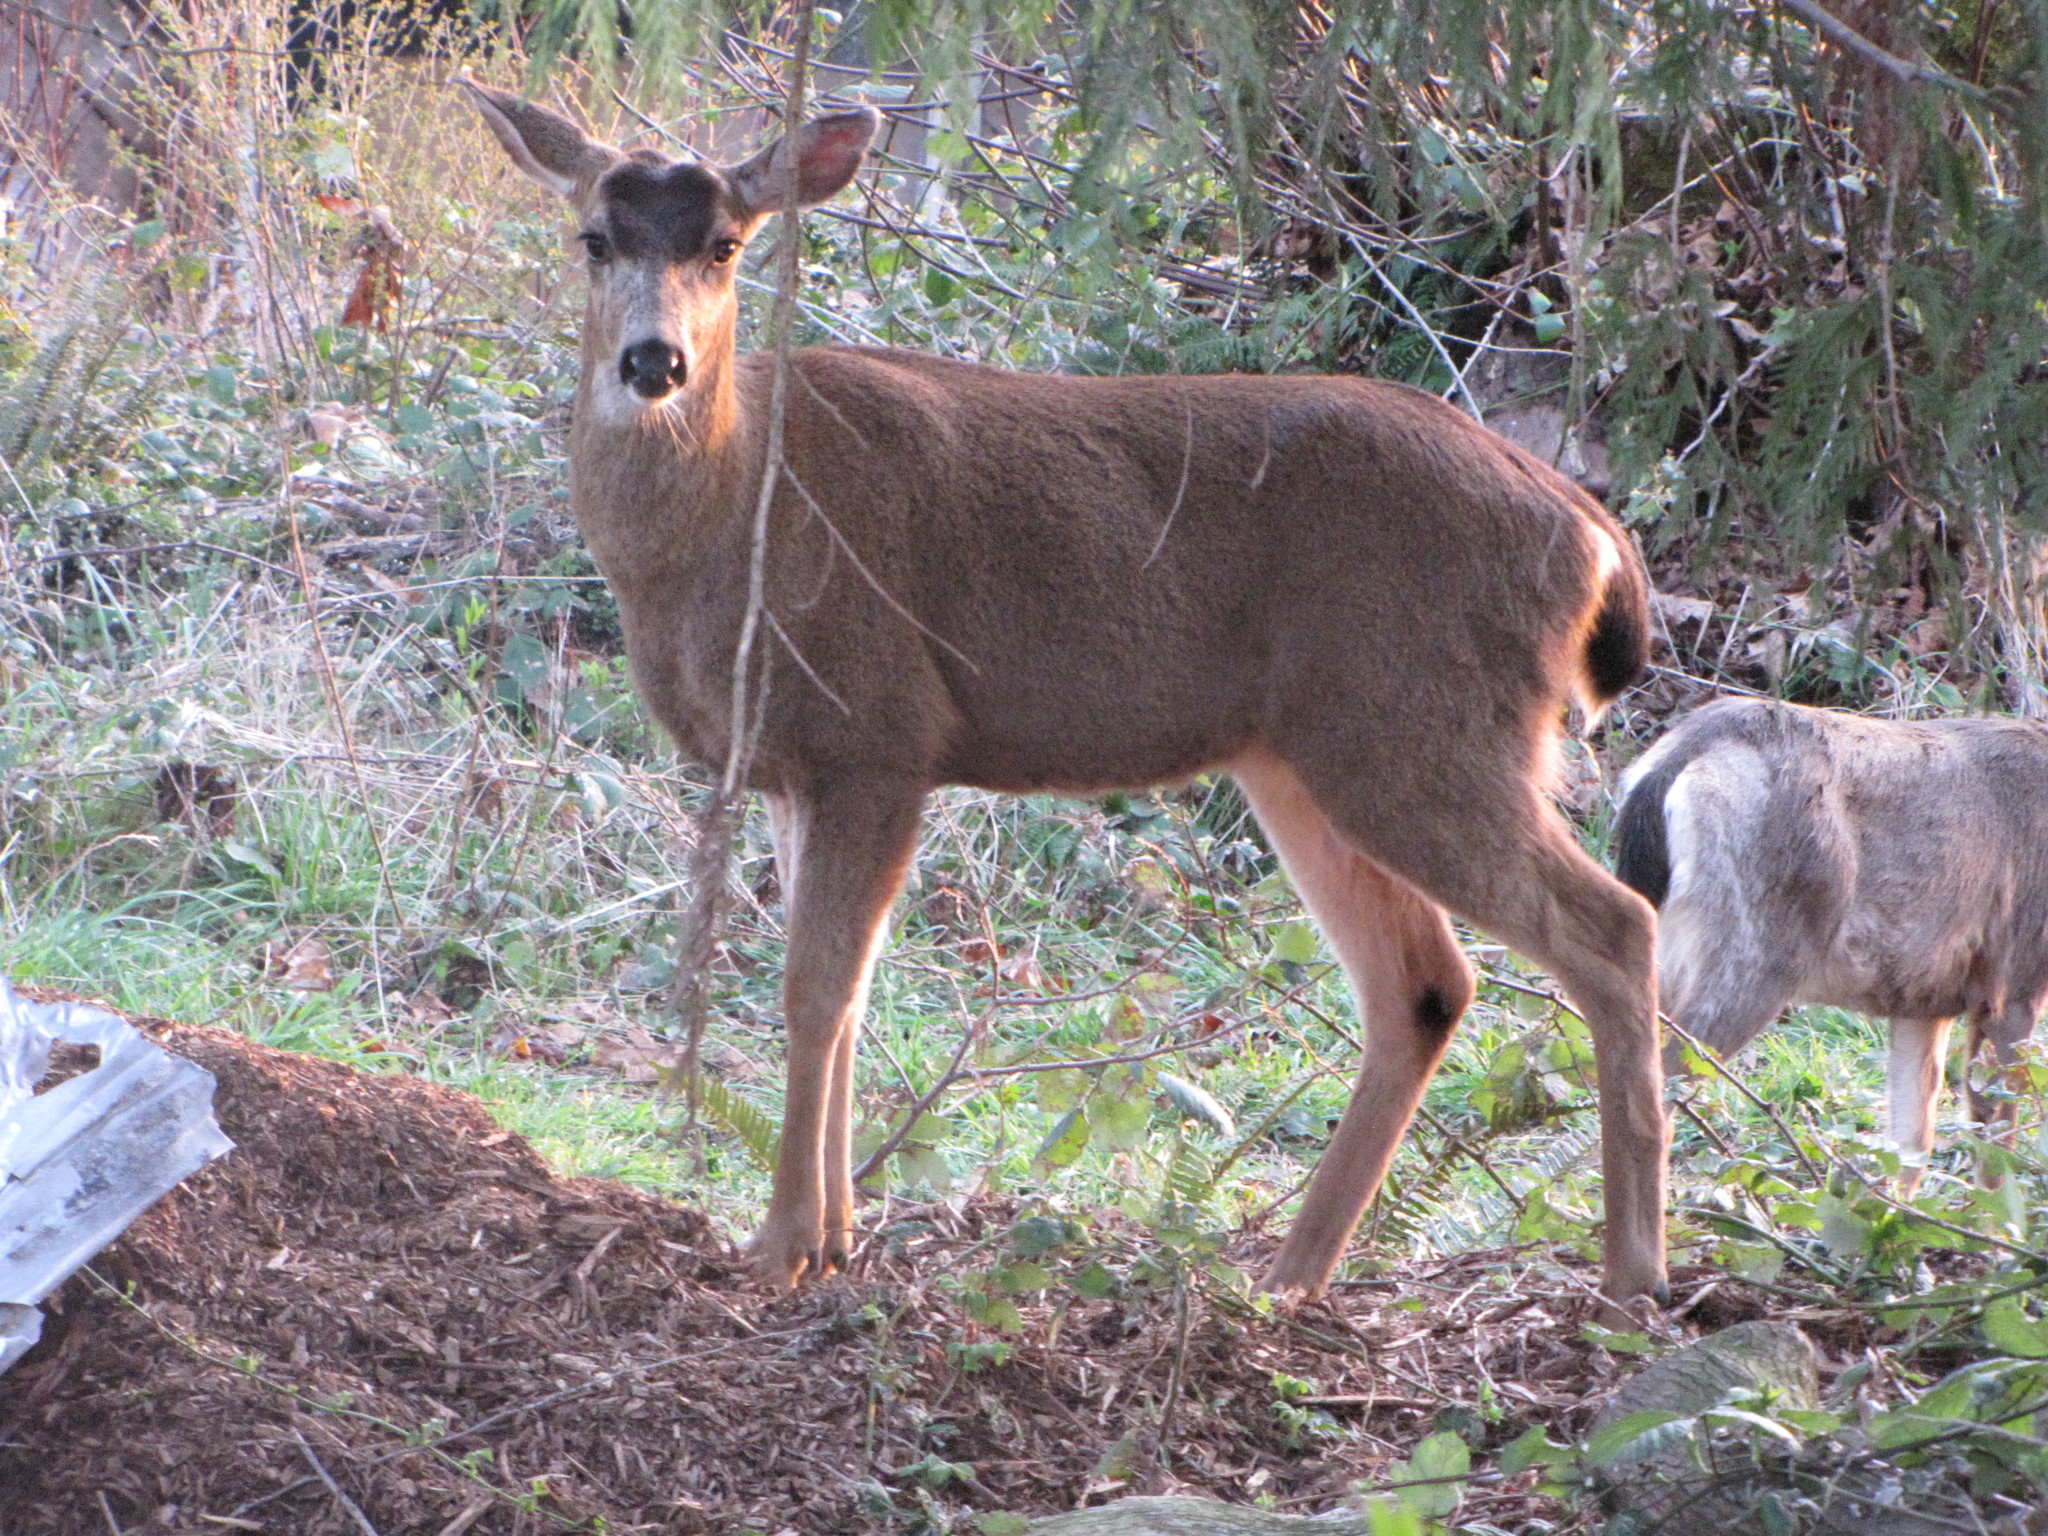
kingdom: Animalia
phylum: Chordata
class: Mammalia
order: Artiodactyla
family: Cervidae
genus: Odocoileus
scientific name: Odocoileus hemionus
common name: Mule deer
